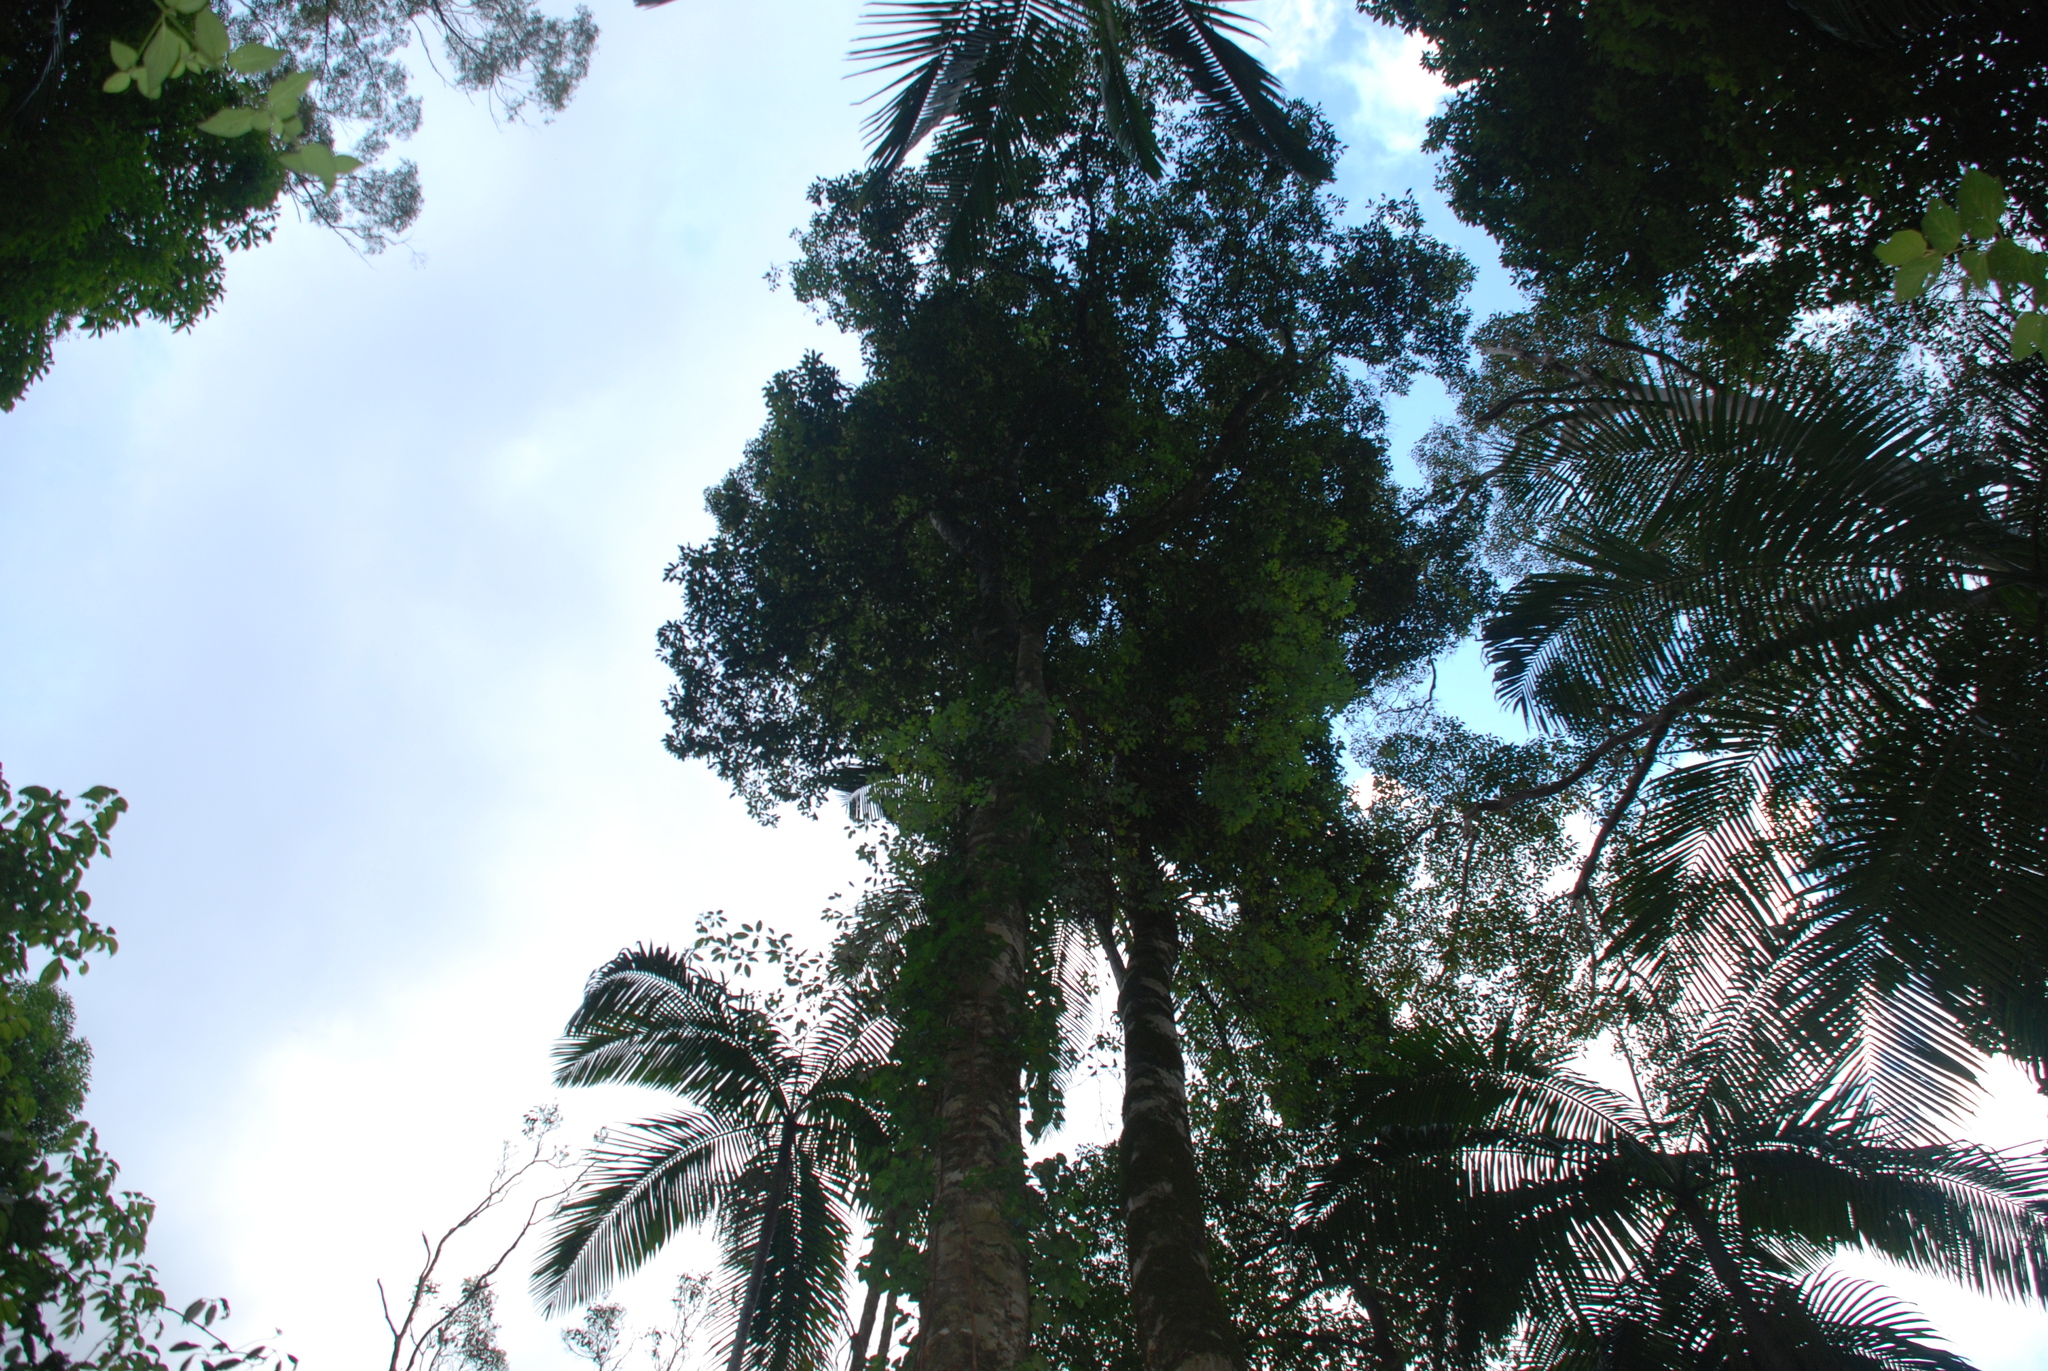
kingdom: Plantae
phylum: Tracheophyta
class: Liliopsida
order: Arecales
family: Arecaceae
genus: Archontophoenix
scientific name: Archontophoenix cunninghamiana
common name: Piccabeen bangalow palm
